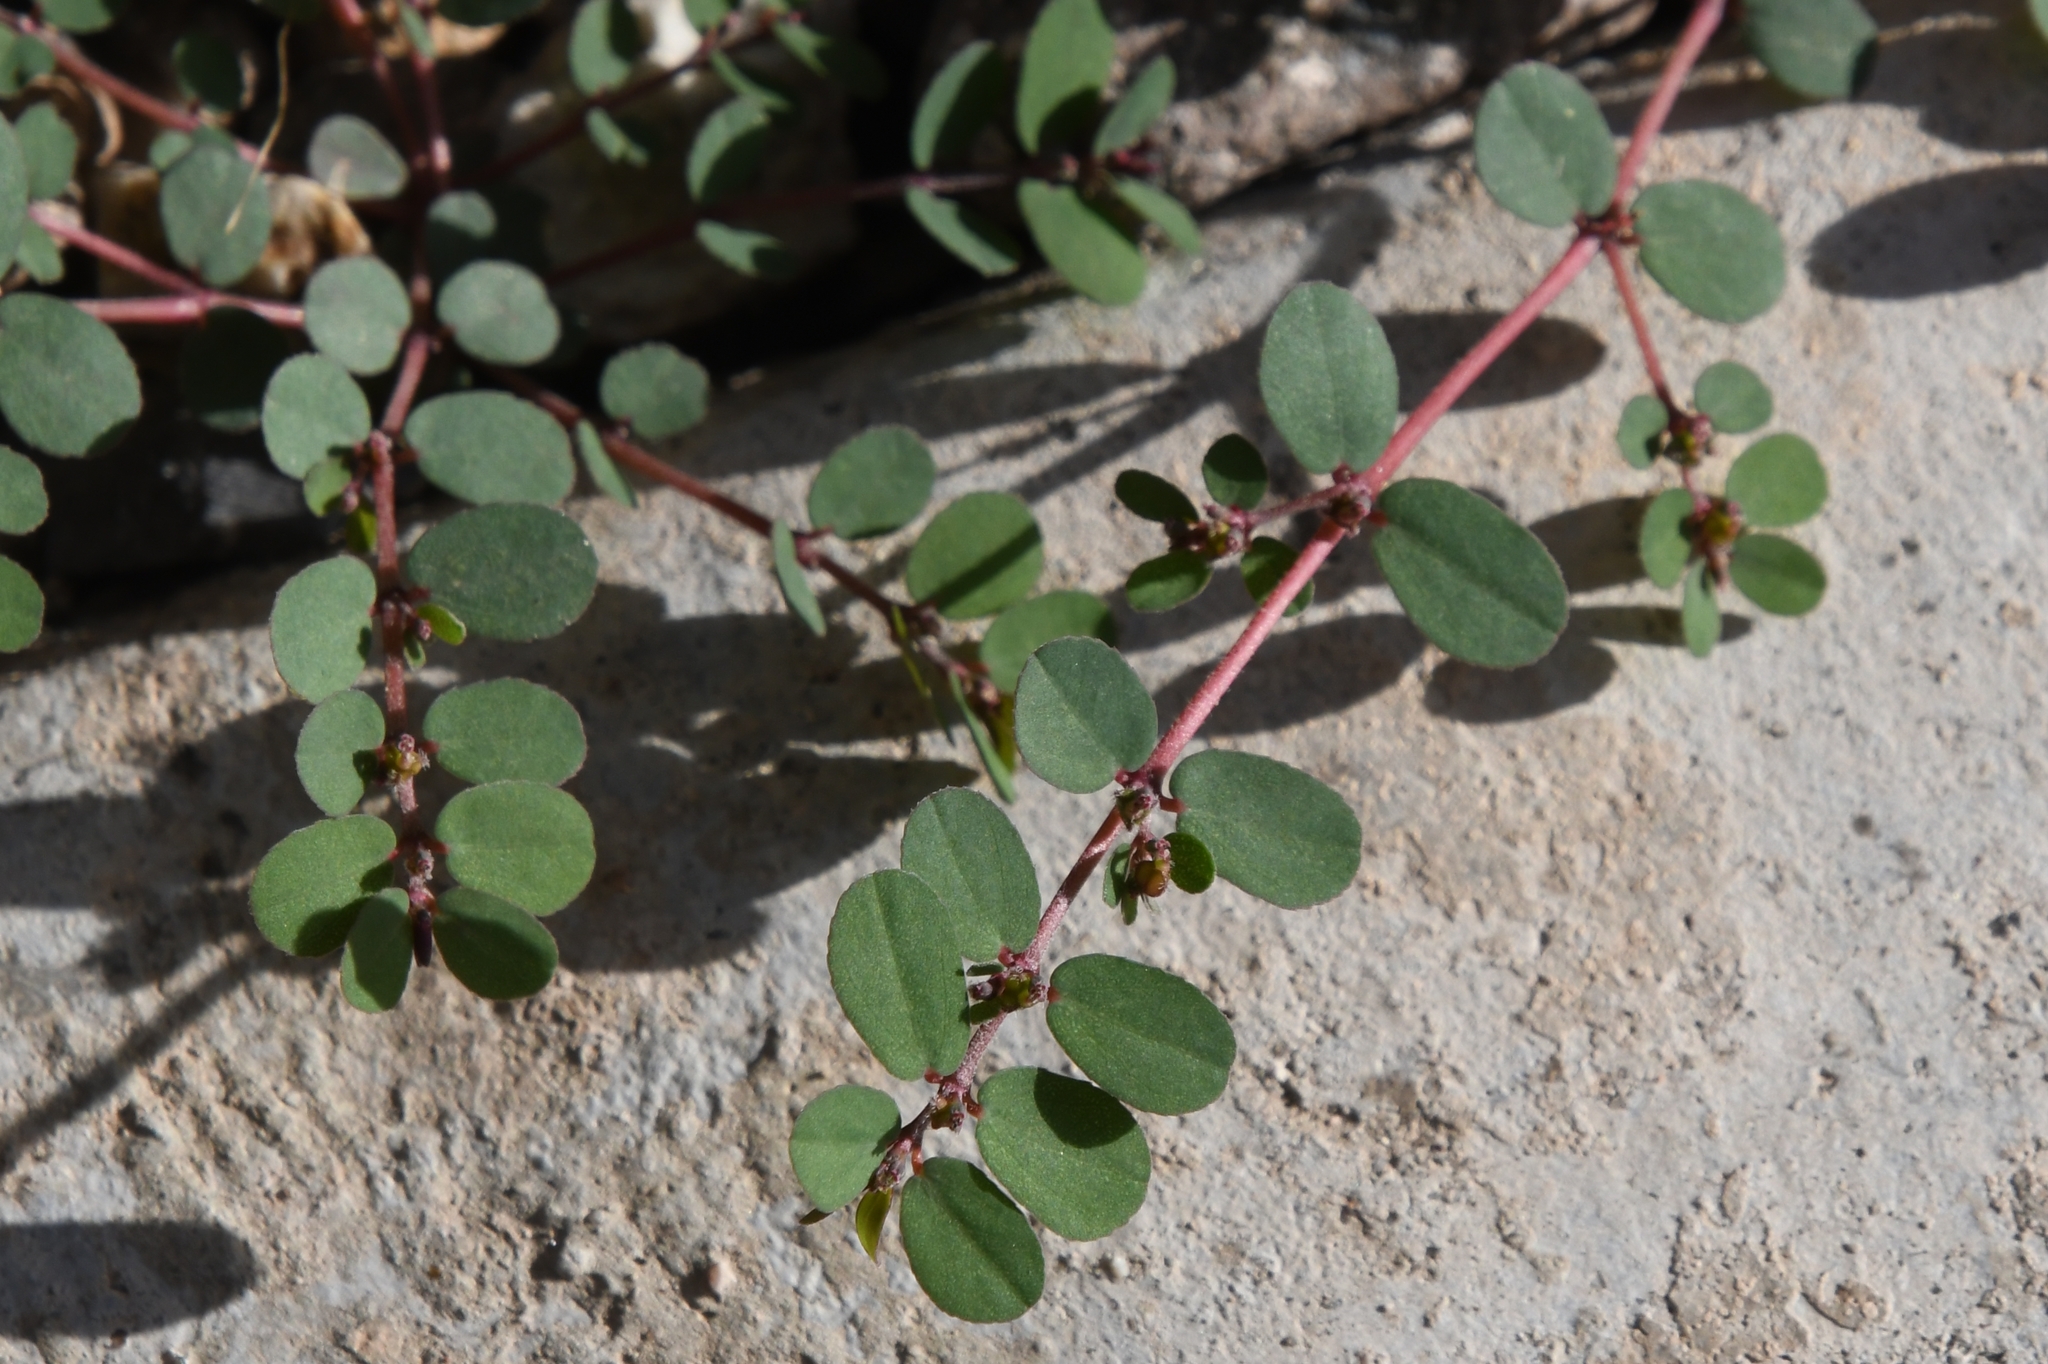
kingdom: Plantae
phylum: Tracheophyta
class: Magnoliopsida
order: Malpighiales
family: Euphorbiaceae
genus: Euphorbia
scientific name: Euphorbia prostrata
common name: Prostrate sandmat
